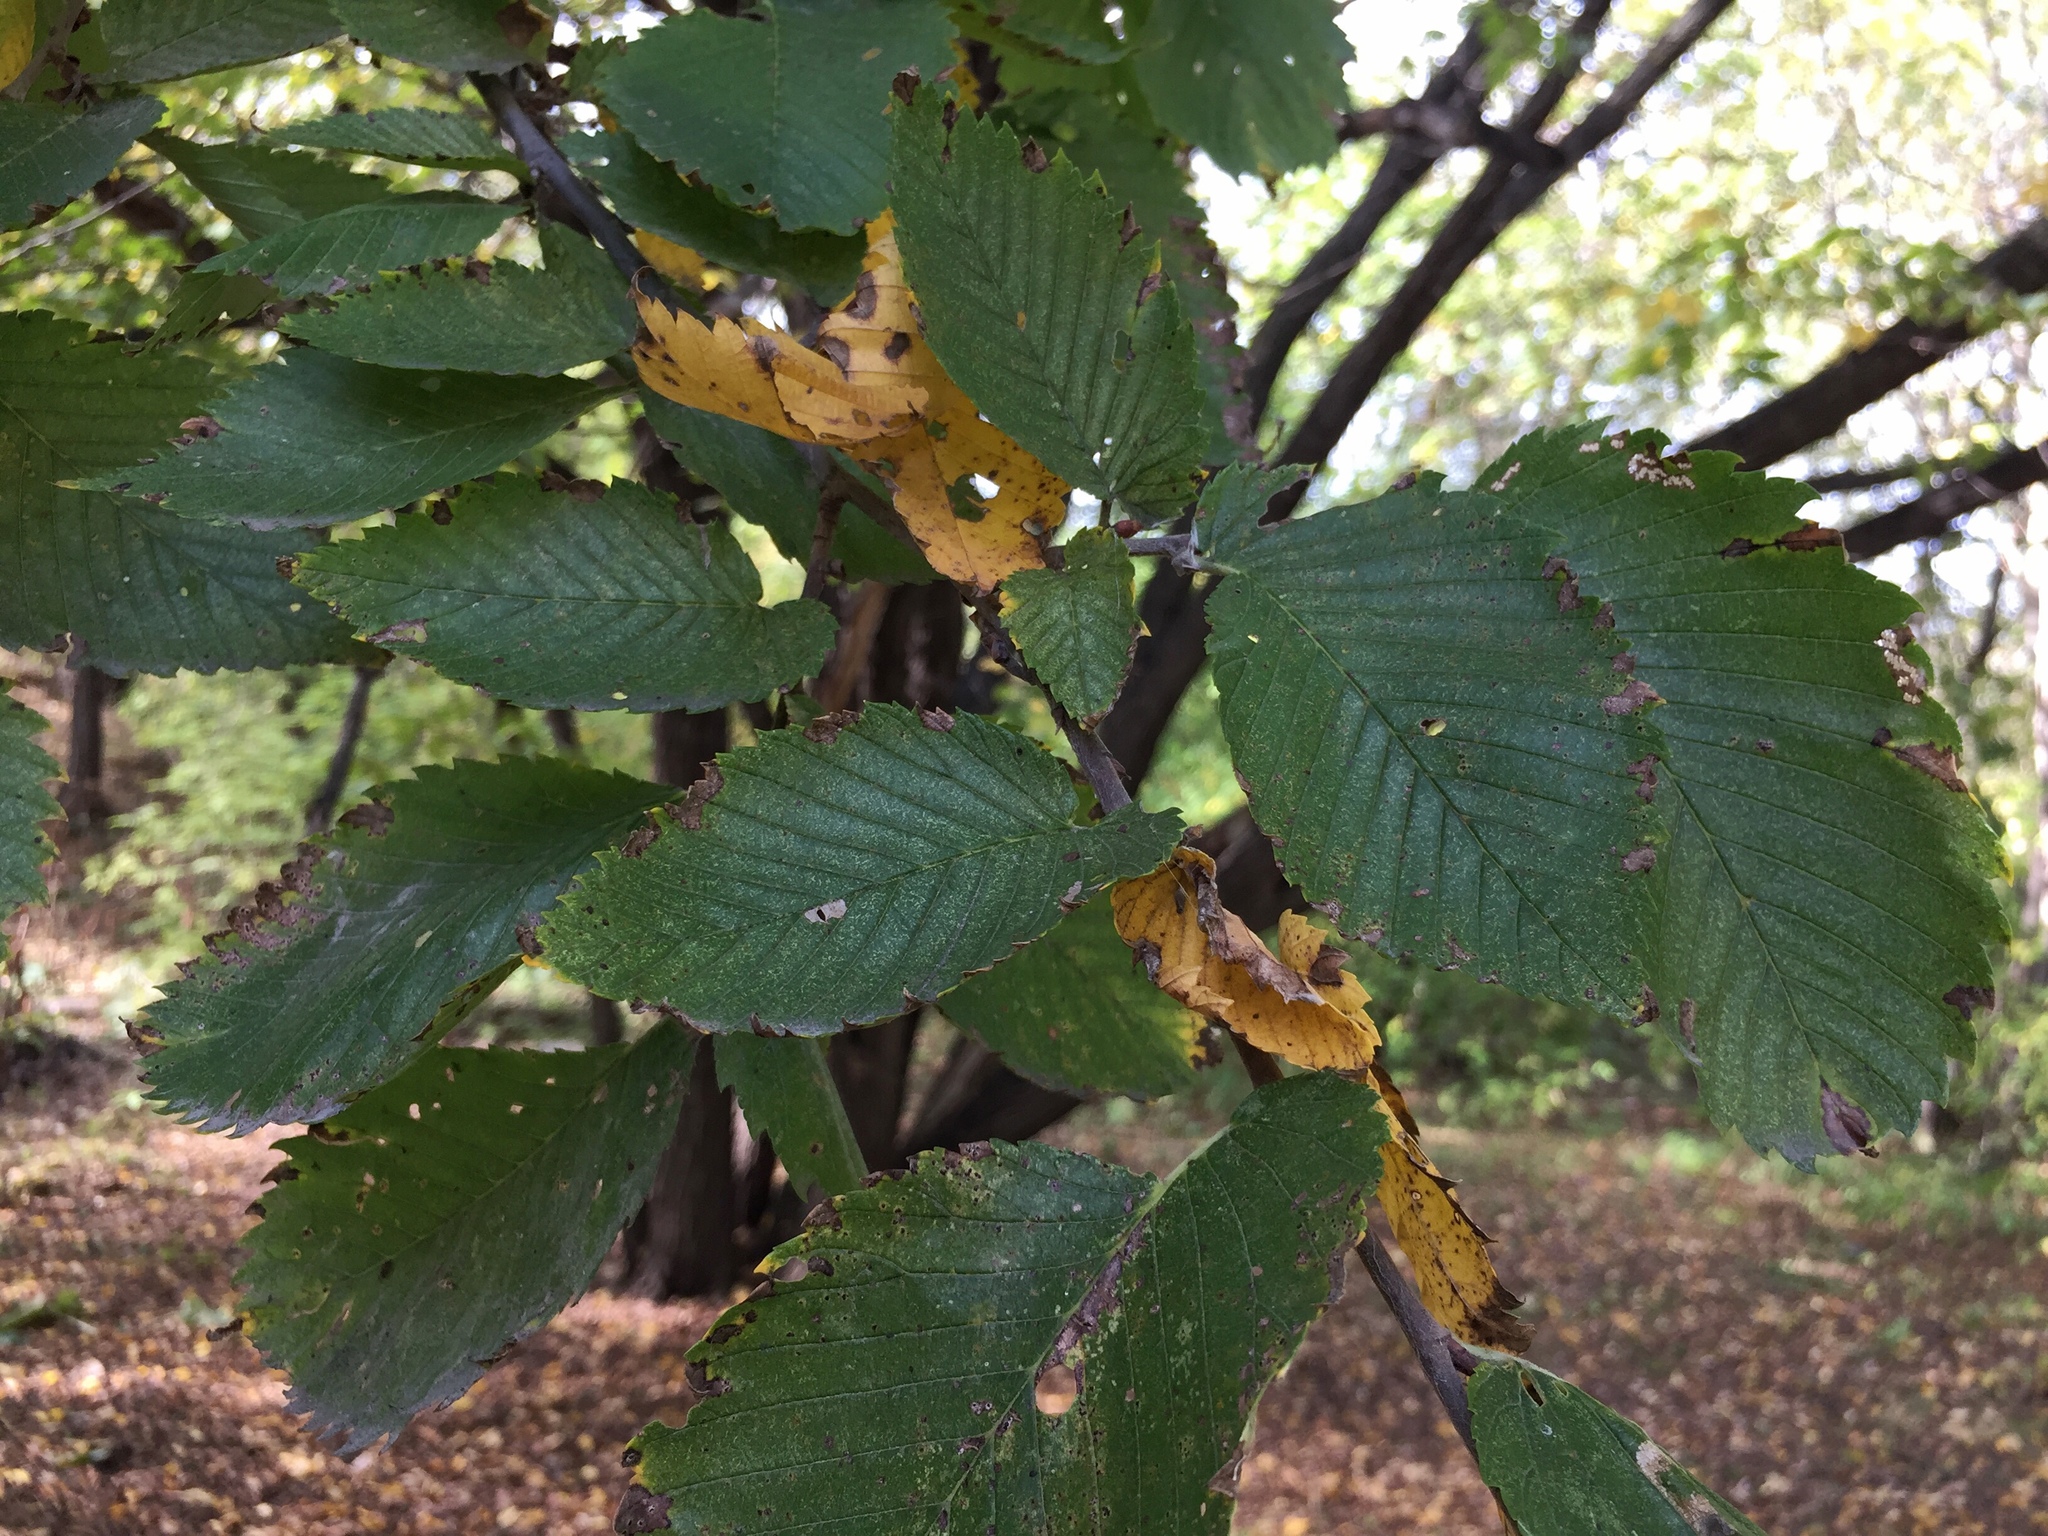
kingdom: Plantae
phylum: Tracheophyta
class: Magnoliopsida
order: Rosales
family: Ulmaceae
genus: Ulmus
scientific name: Ulmus americana
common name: American elm
